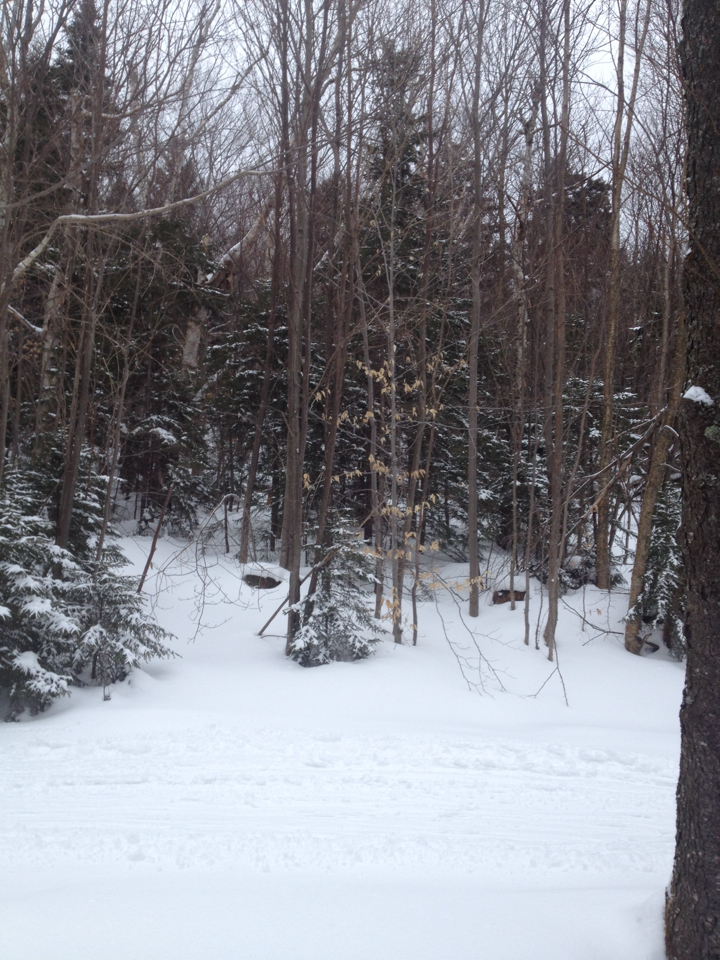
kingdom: Plantae
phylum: Tracheophyta
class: Magnoliopsida
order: Fagales
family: Fagaceae
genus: Fagus
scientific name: Fagus grandifolia
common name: American beech
